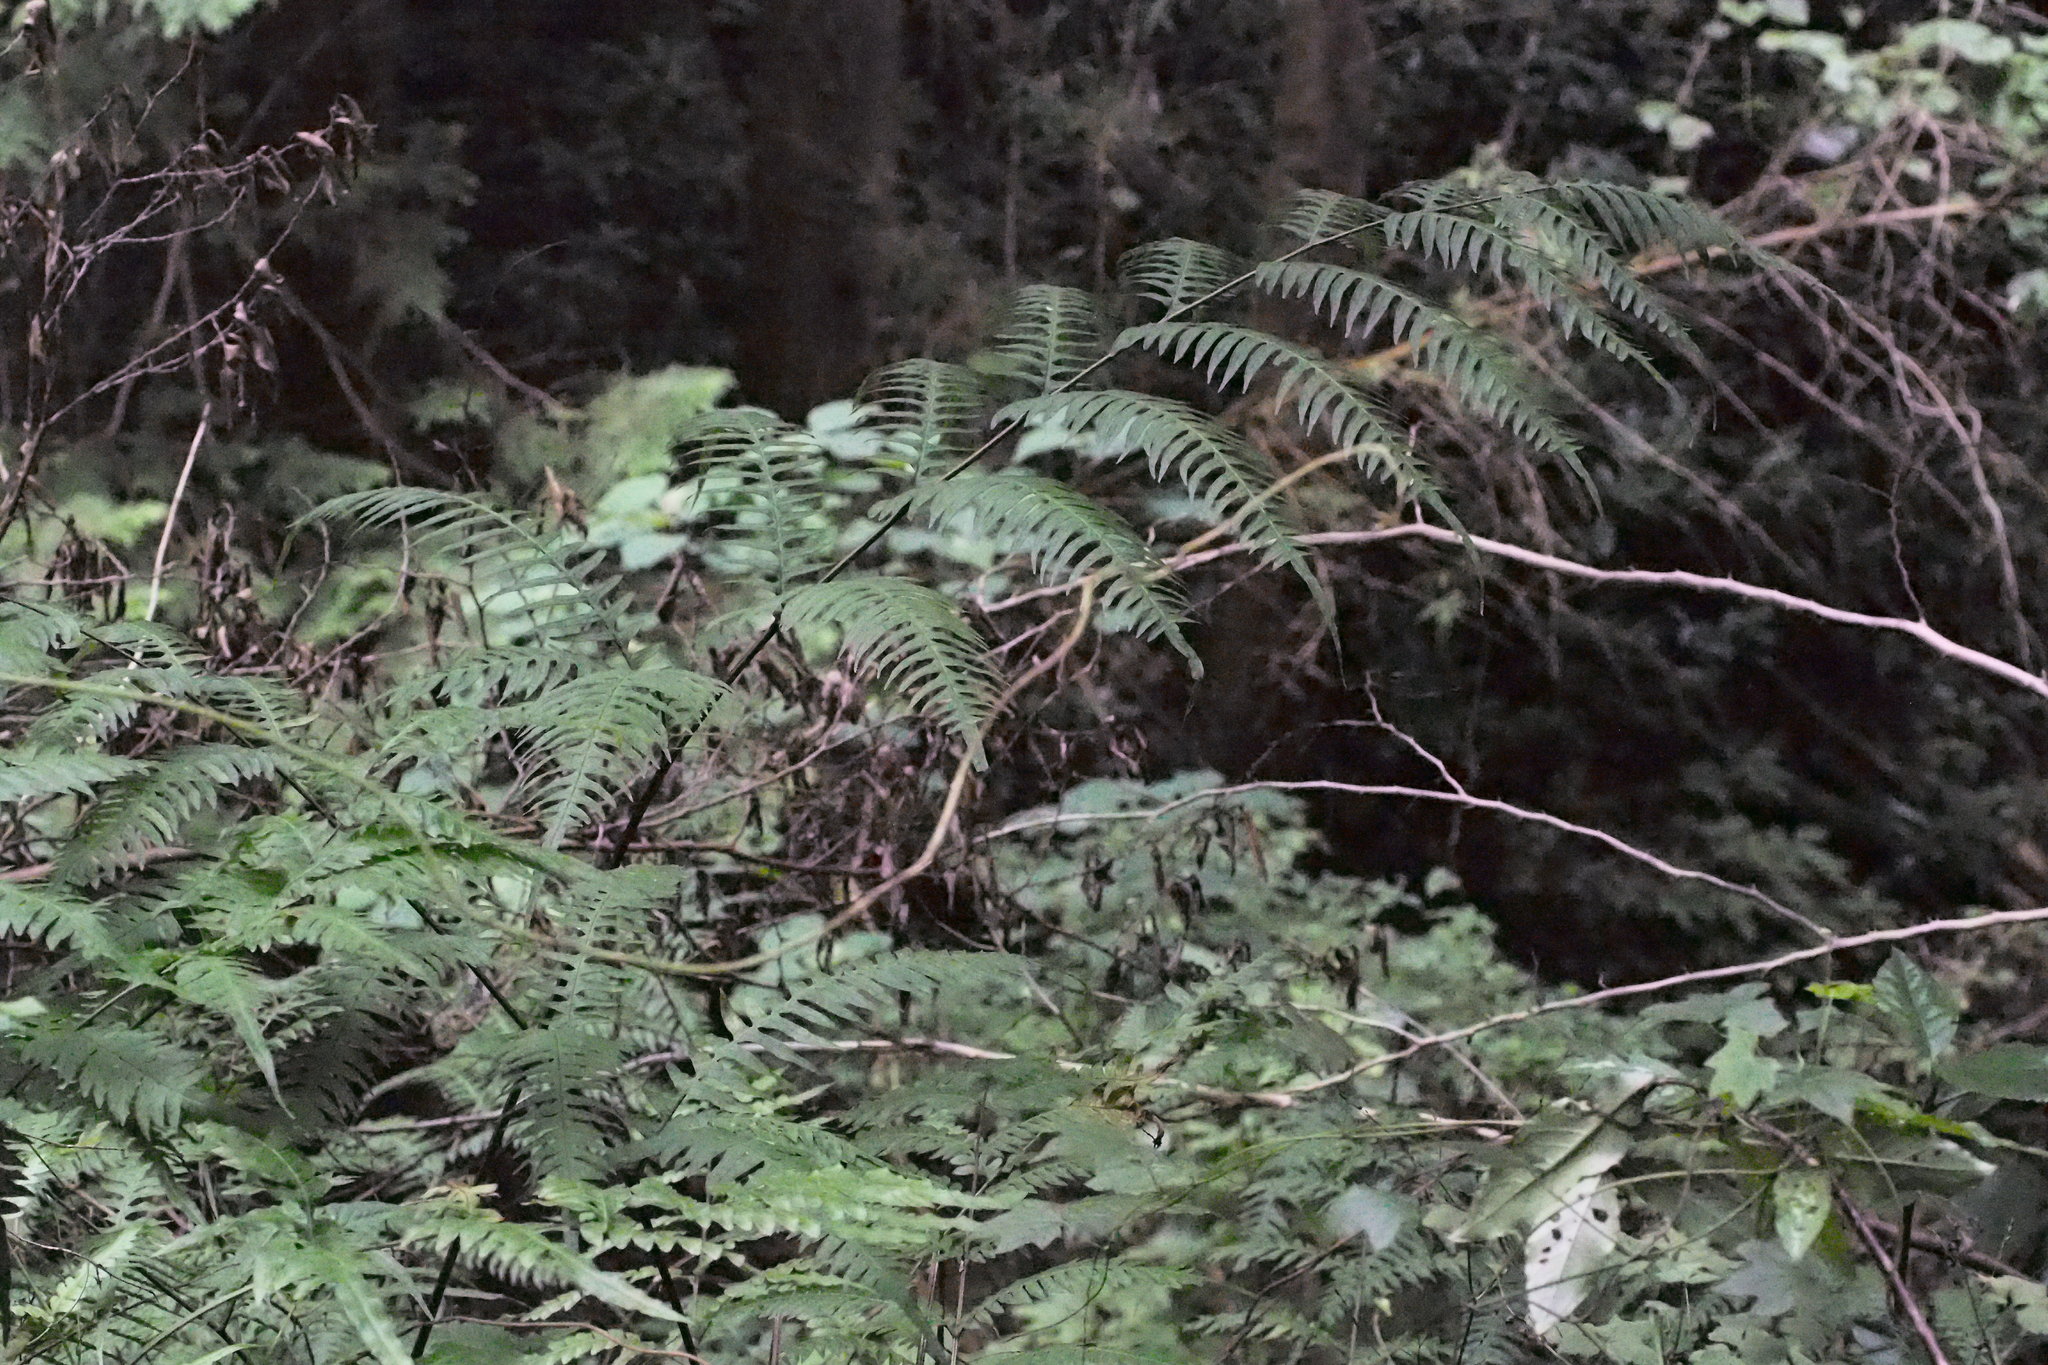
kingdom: Plantae
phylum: Tracheophyta
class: Polypodiopsida
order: Polypodiales
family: Pteridaceae
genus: Pteris
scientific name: Pteris terminalis
